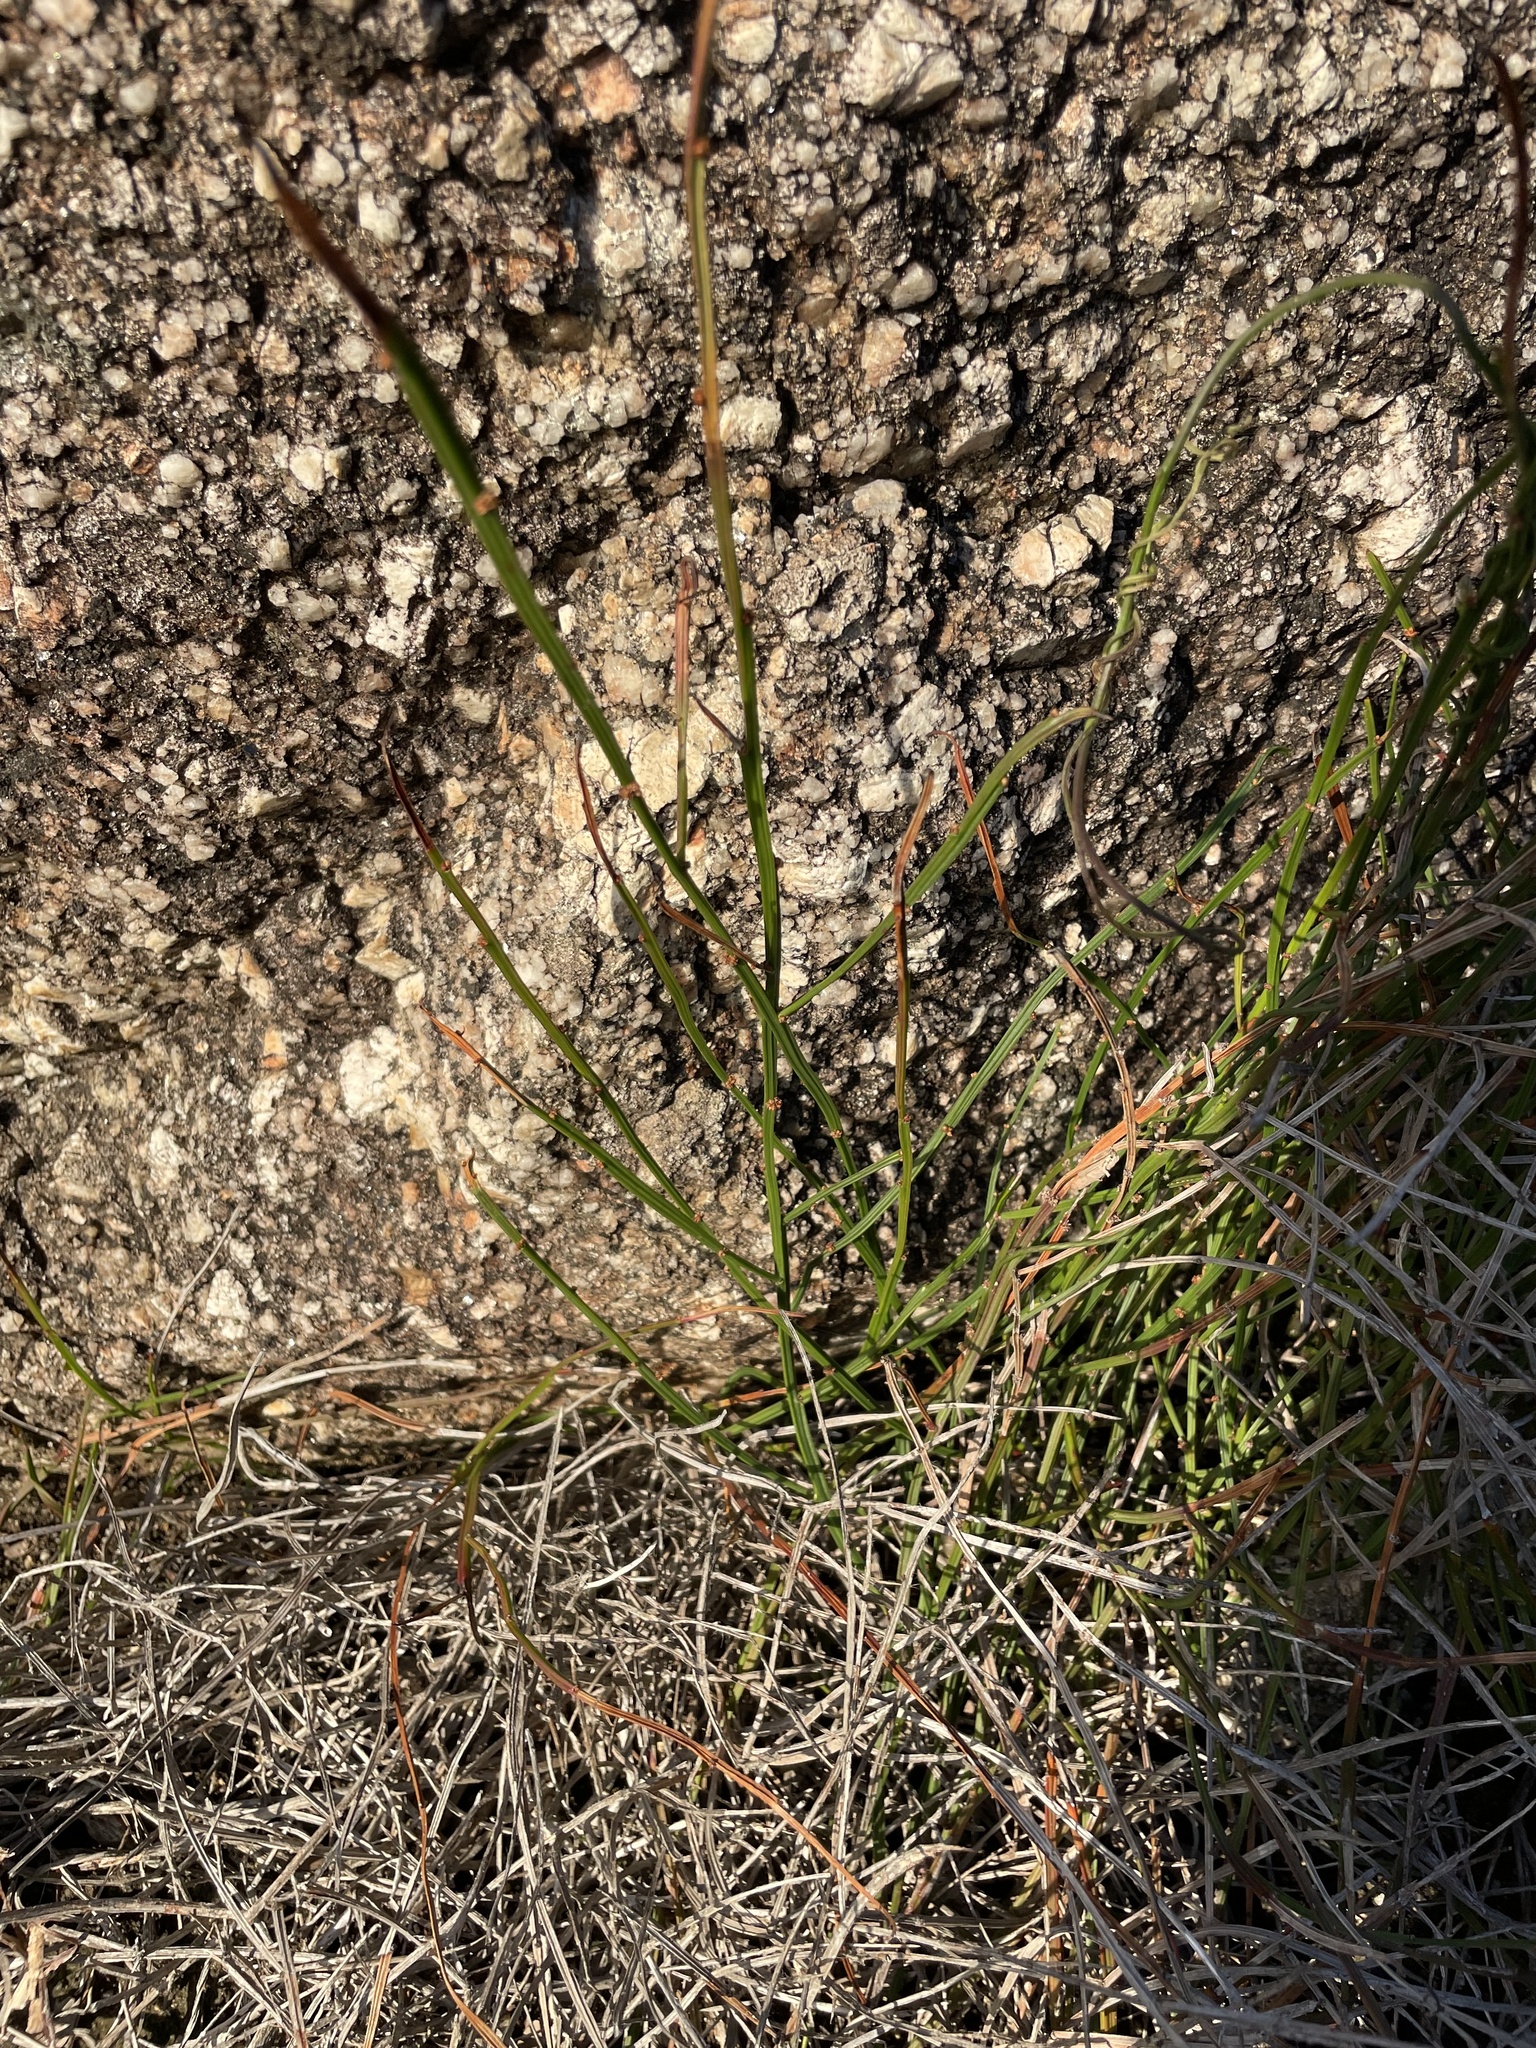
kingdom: Plantae
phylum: Tracheophyta
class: Magnoliopsida
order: Malpighiales
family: Euphorbiaceae
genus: Amperea
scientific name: Amperea xiphoclada
